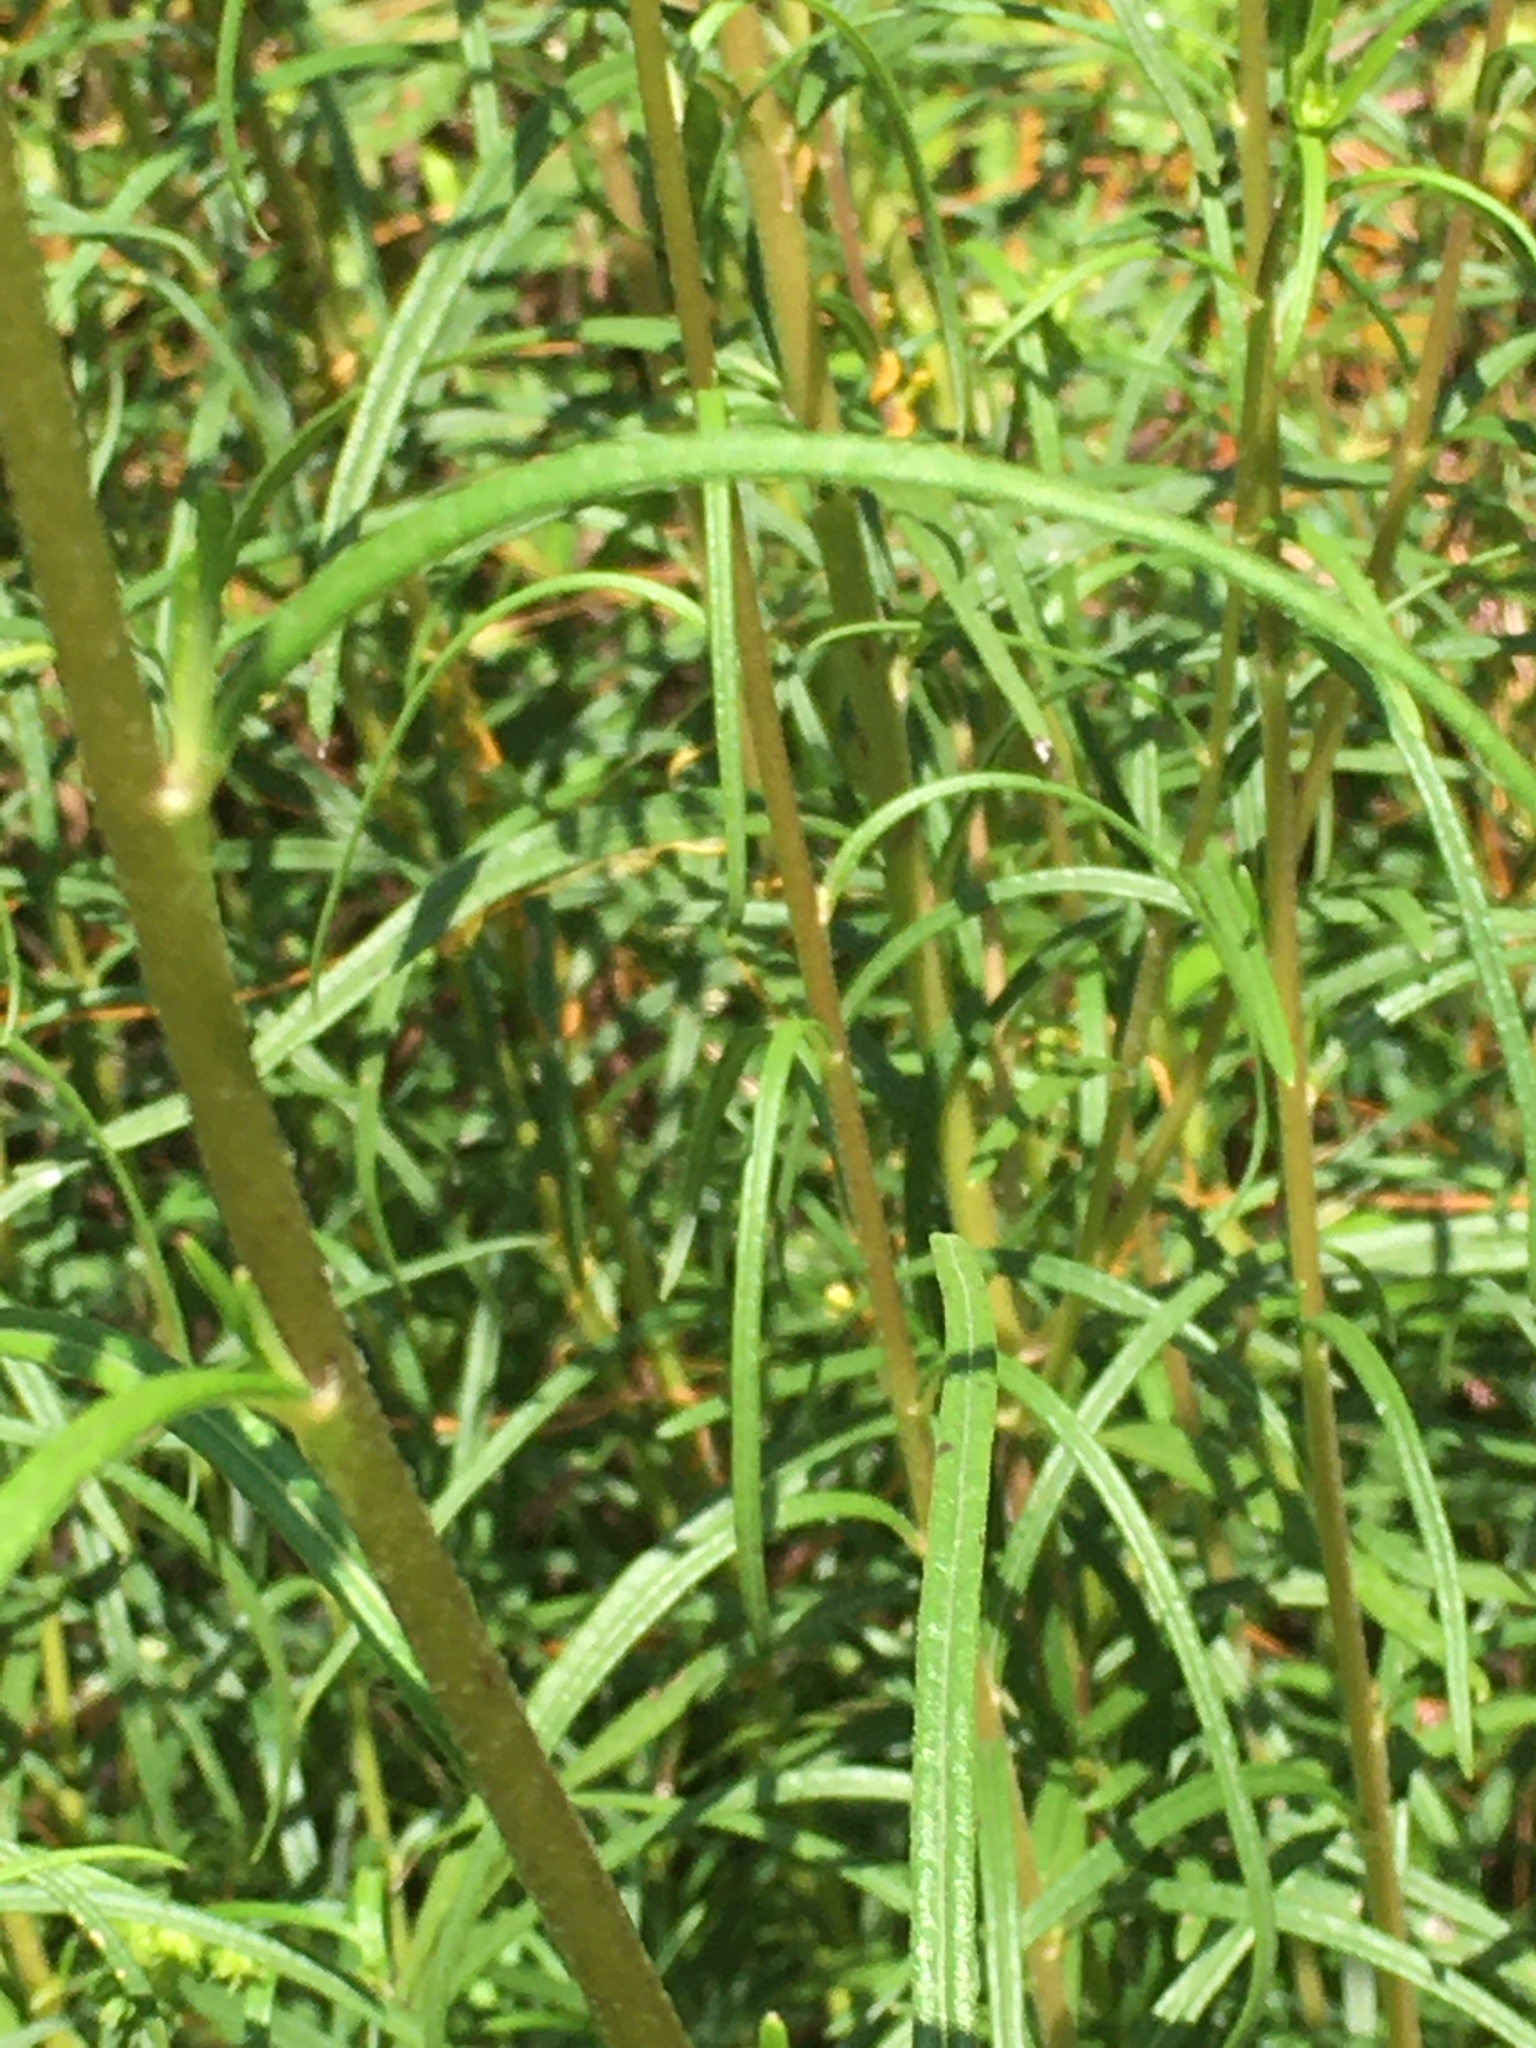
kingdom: Plantae
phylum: Tracheophyta
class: Magnoliopsida
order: Asterales
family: Asteraceae
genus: Helianthus
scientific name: Helianthus angustifolius
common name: Swamp sunflower
